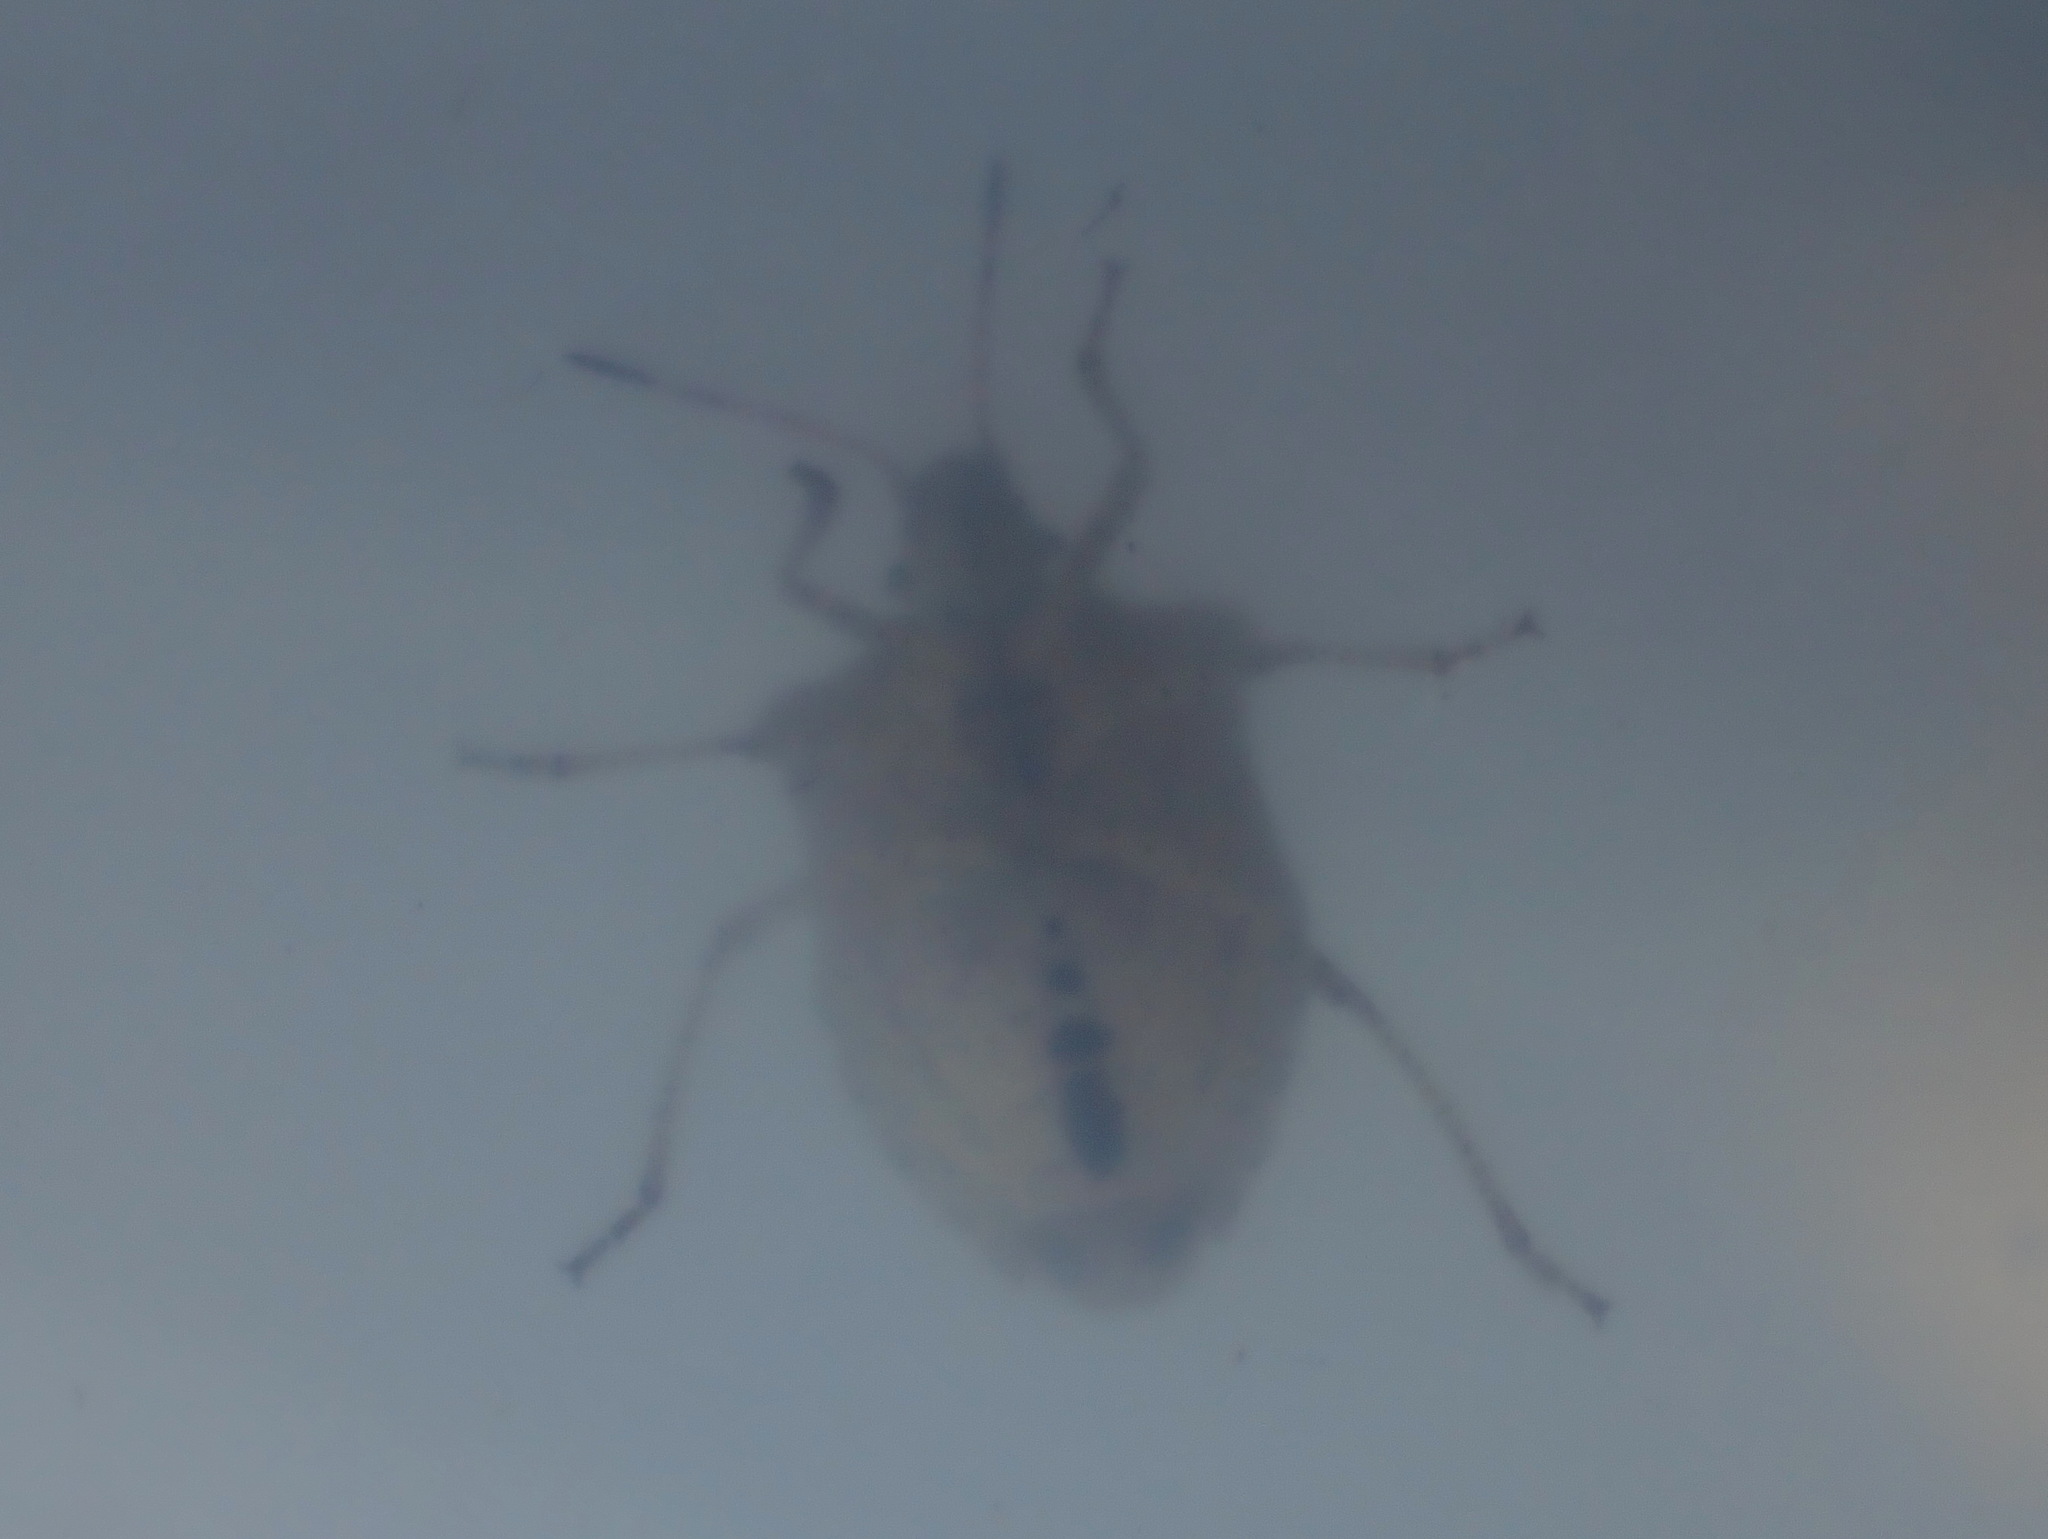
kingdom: Animalia
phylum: Arthropoda
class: Insecta
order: Hemiptera
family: Pentatomidae
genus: Euschistus
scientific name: Euschistus tristigmus
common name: Dusky stink bug
